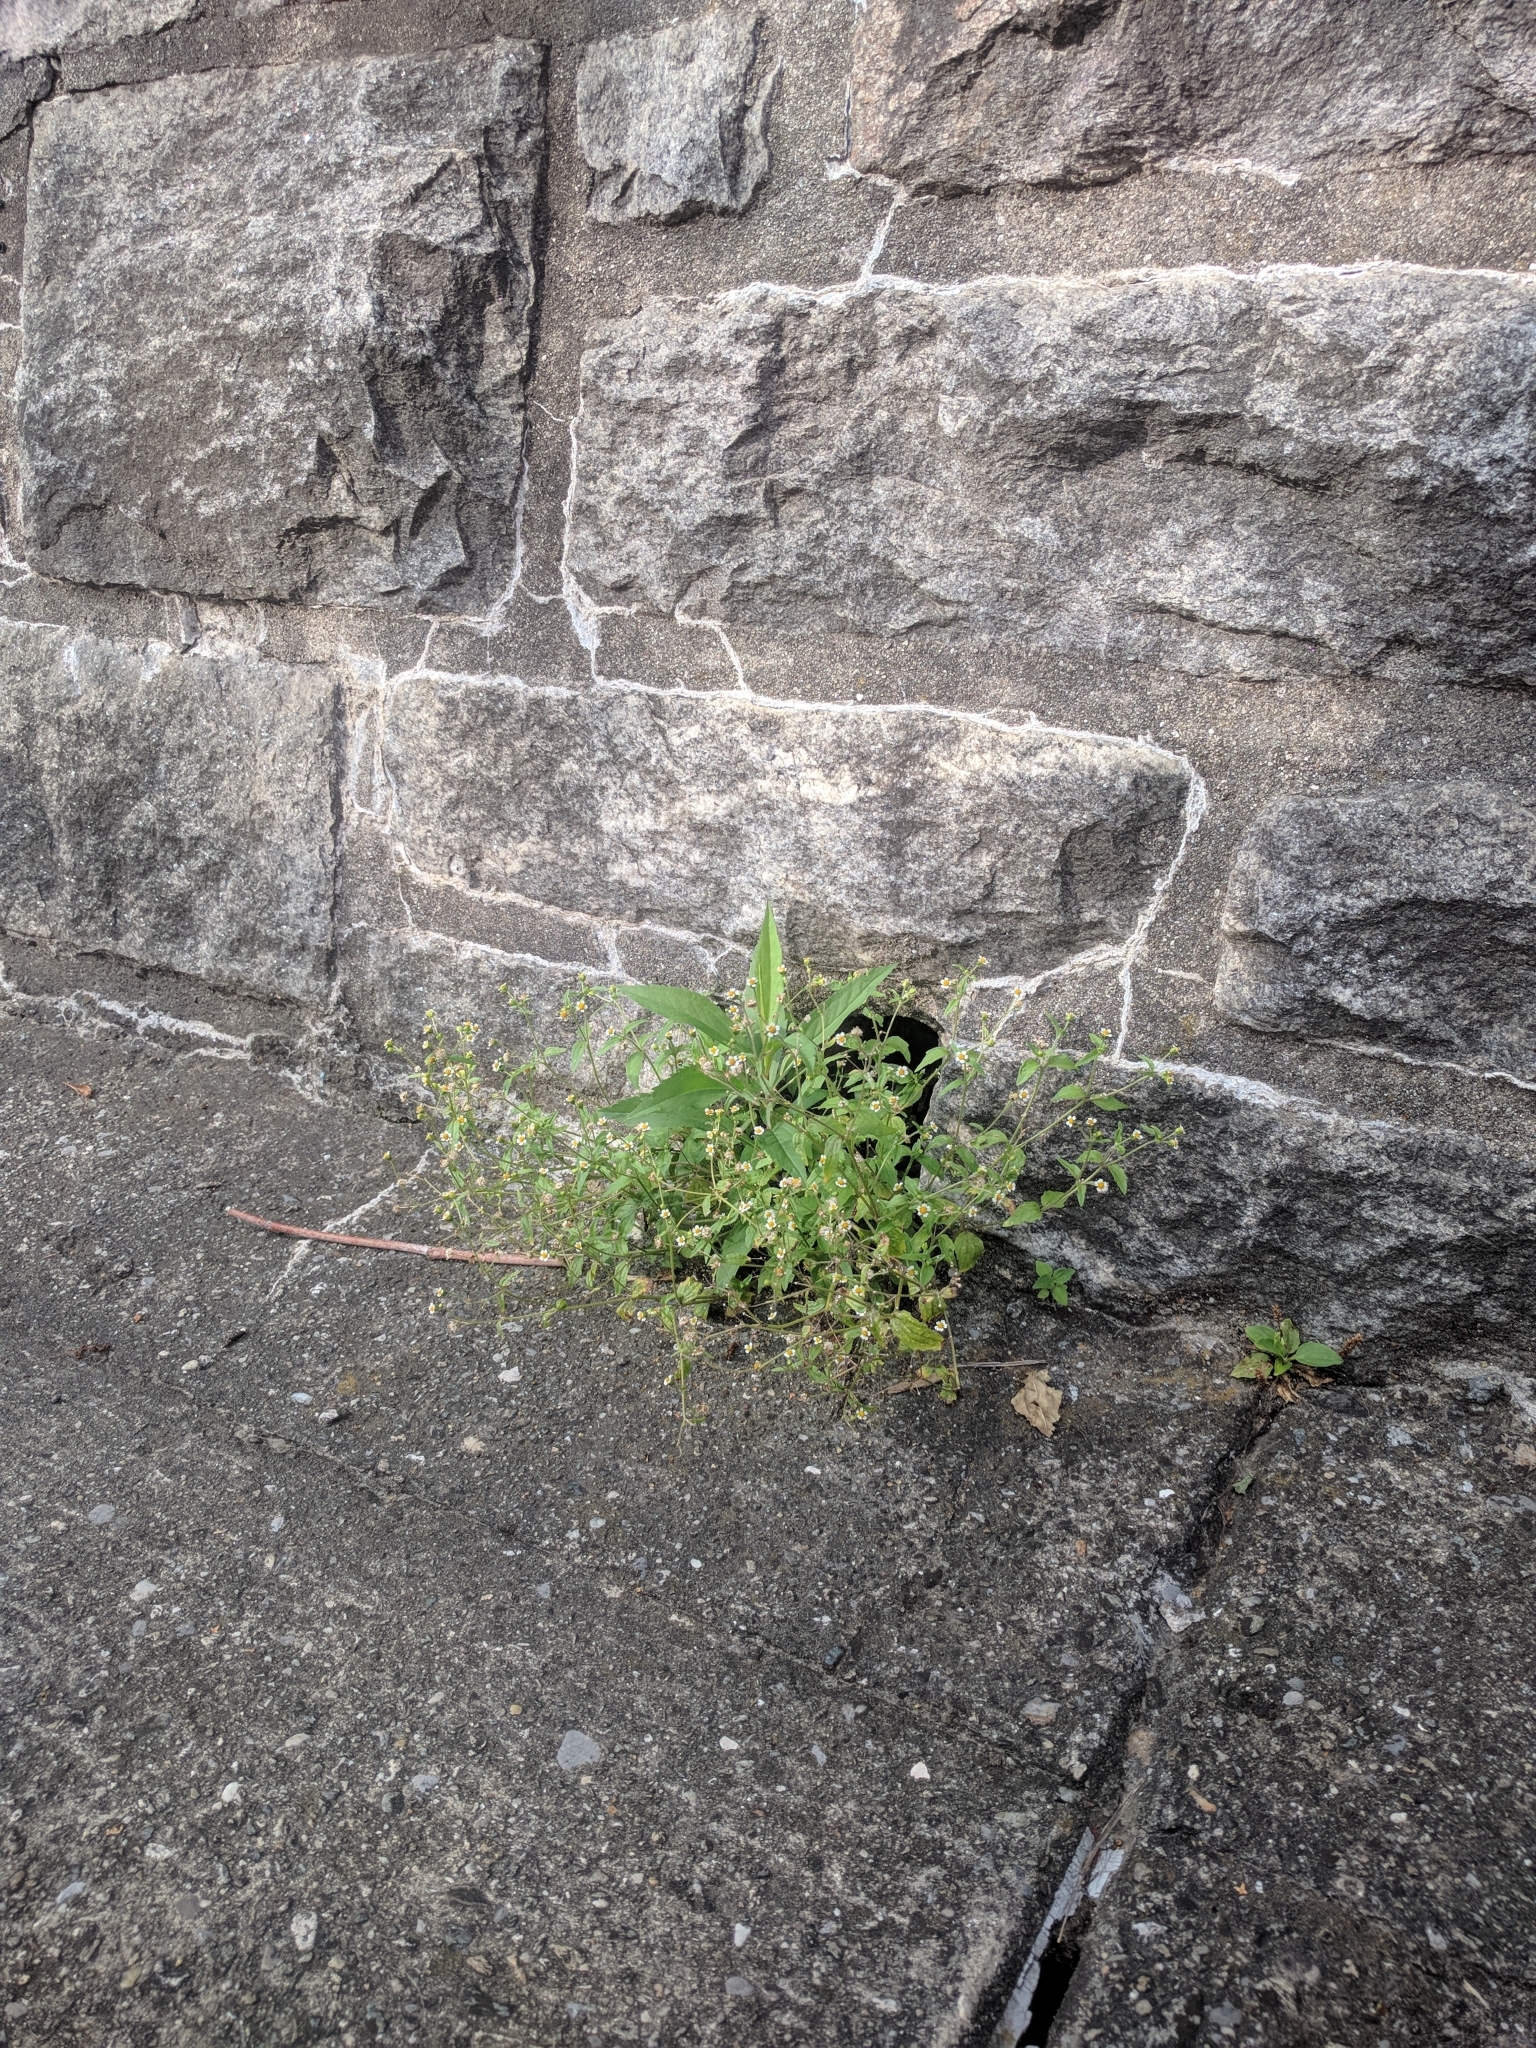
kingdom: Plantae
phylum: Tracheophyta
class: Magnoliopsida
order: Asterales
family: Asteraceae
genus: Galinsoga
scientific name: Galinsoga quadriradiata
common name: Shaggy soldier
